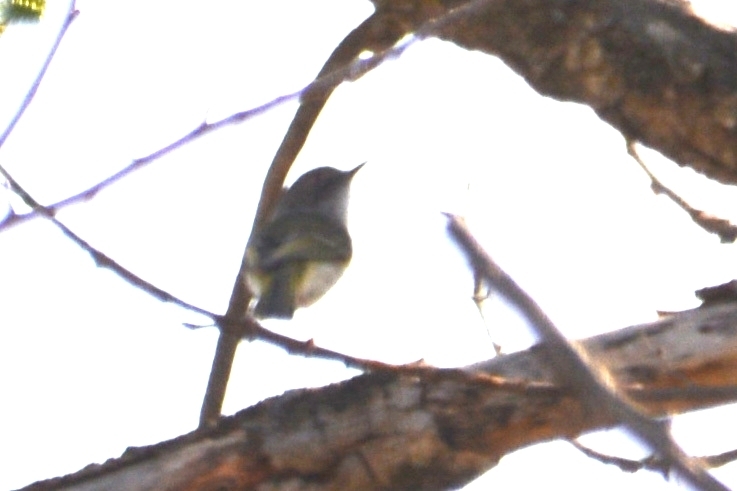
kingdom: Animalia
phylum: Chordata
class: Aves
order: Passeriformes
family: Tyrannidae
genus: Hemitriccus
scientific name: Hemitriccus margaritaceiventer
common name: Pearly-vented tody-tyrant
